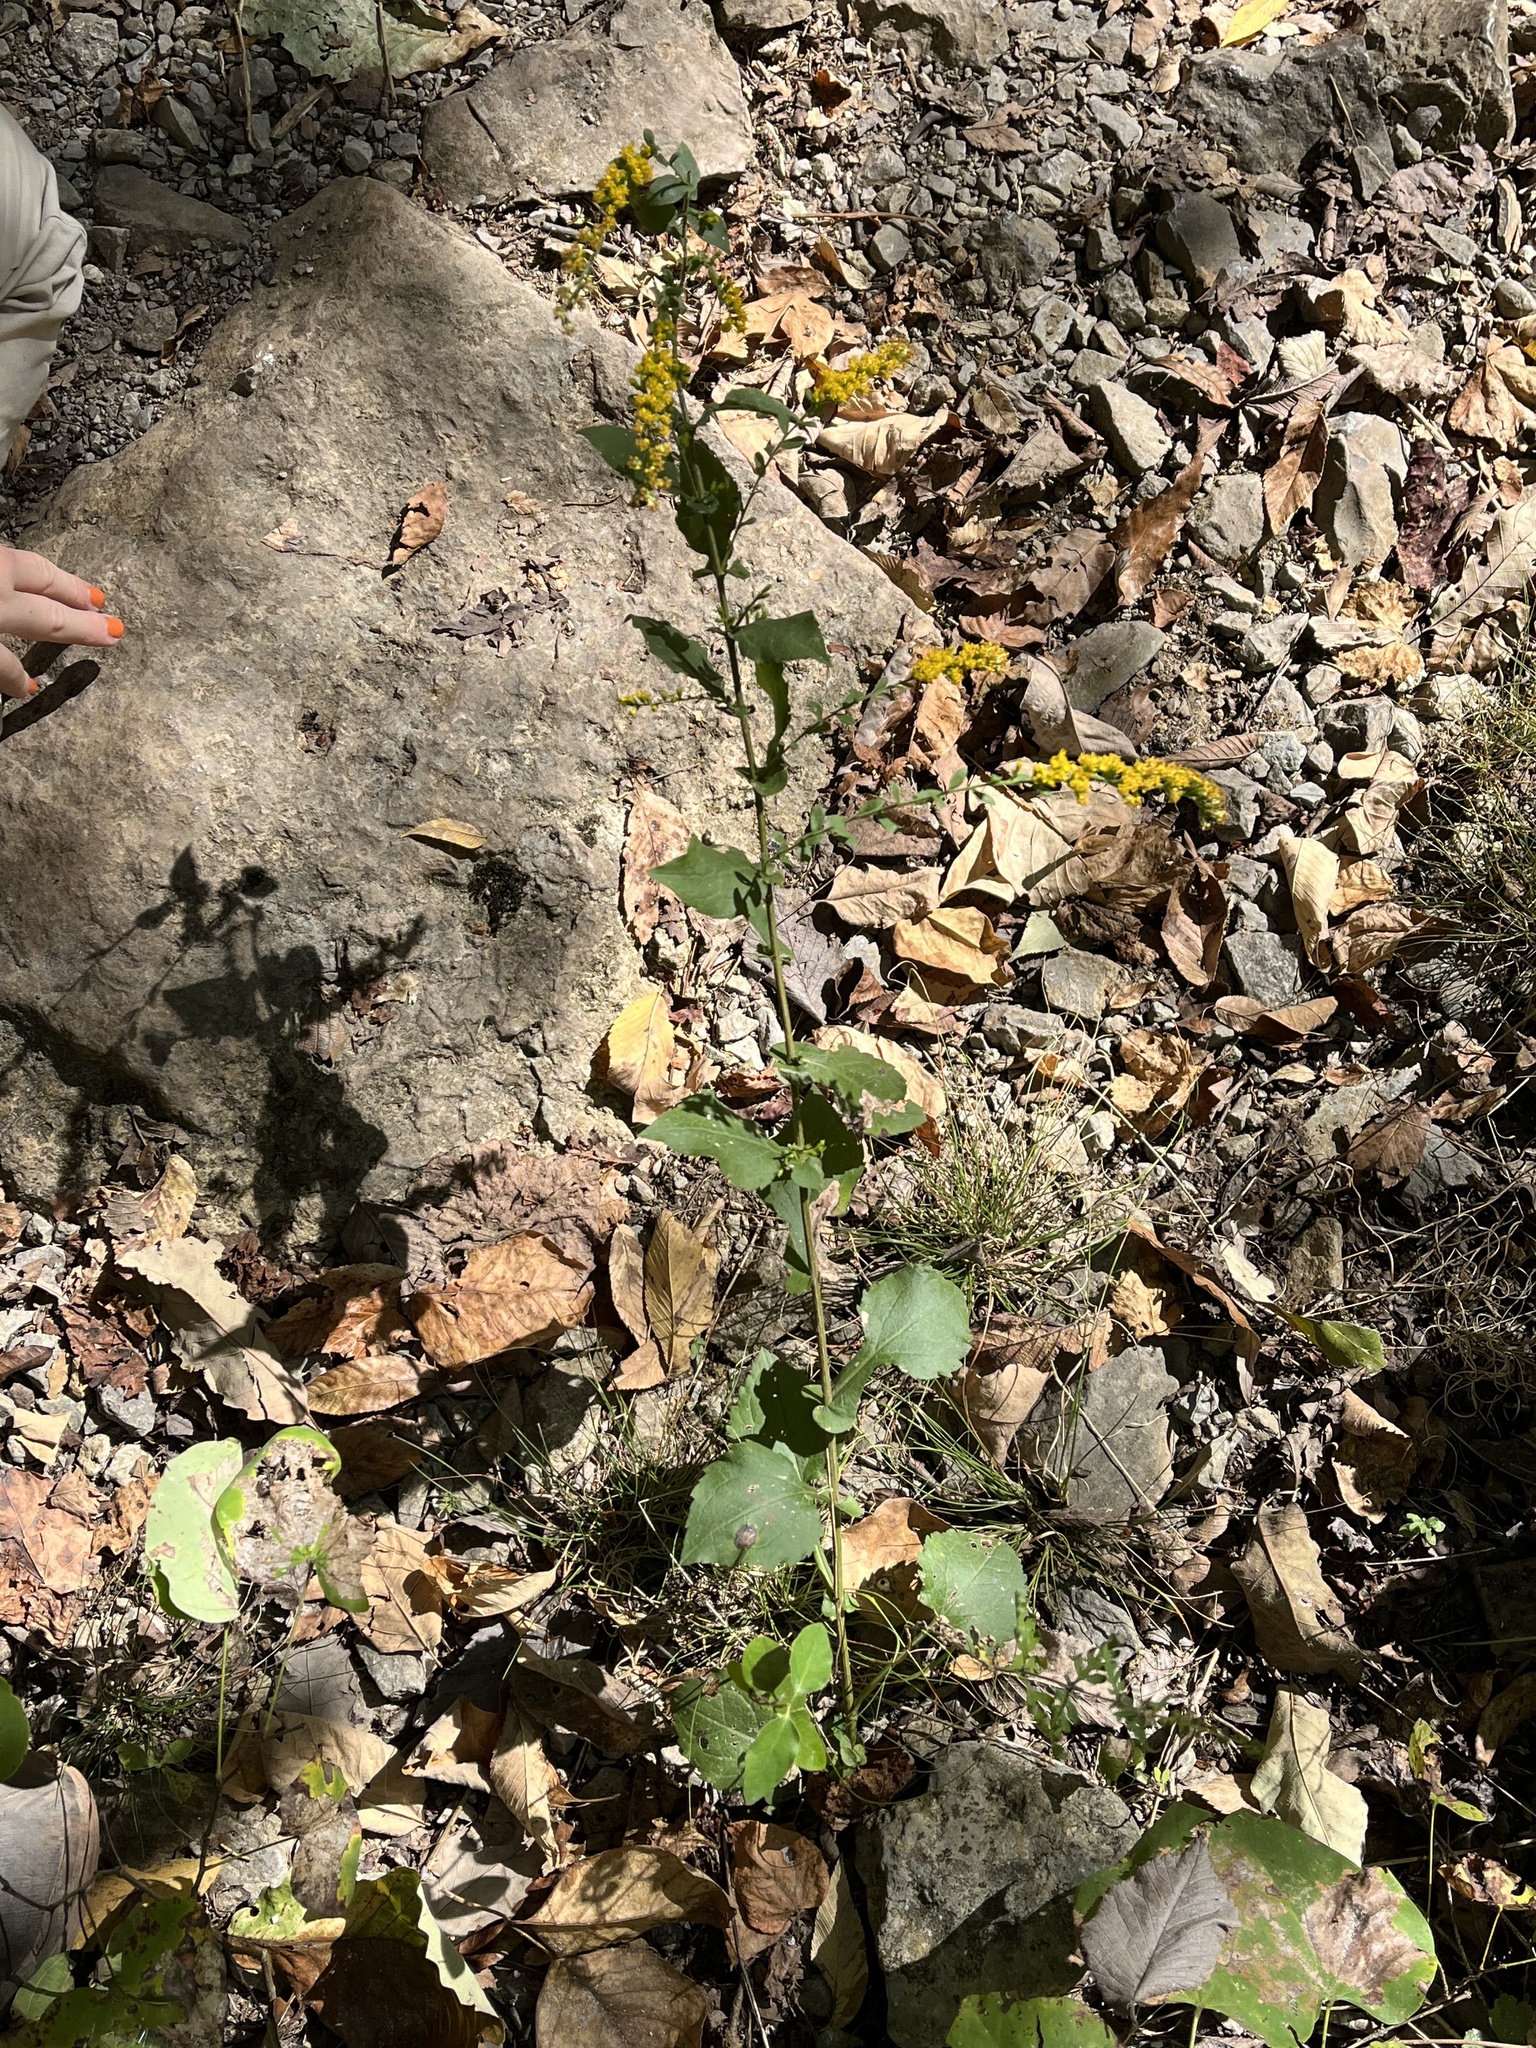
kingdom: Plantae
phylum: Tracheophyta
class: Magnoliopsida
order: Asterales
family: Asteraceae
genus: Solidago
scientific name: Solidago auriculata
